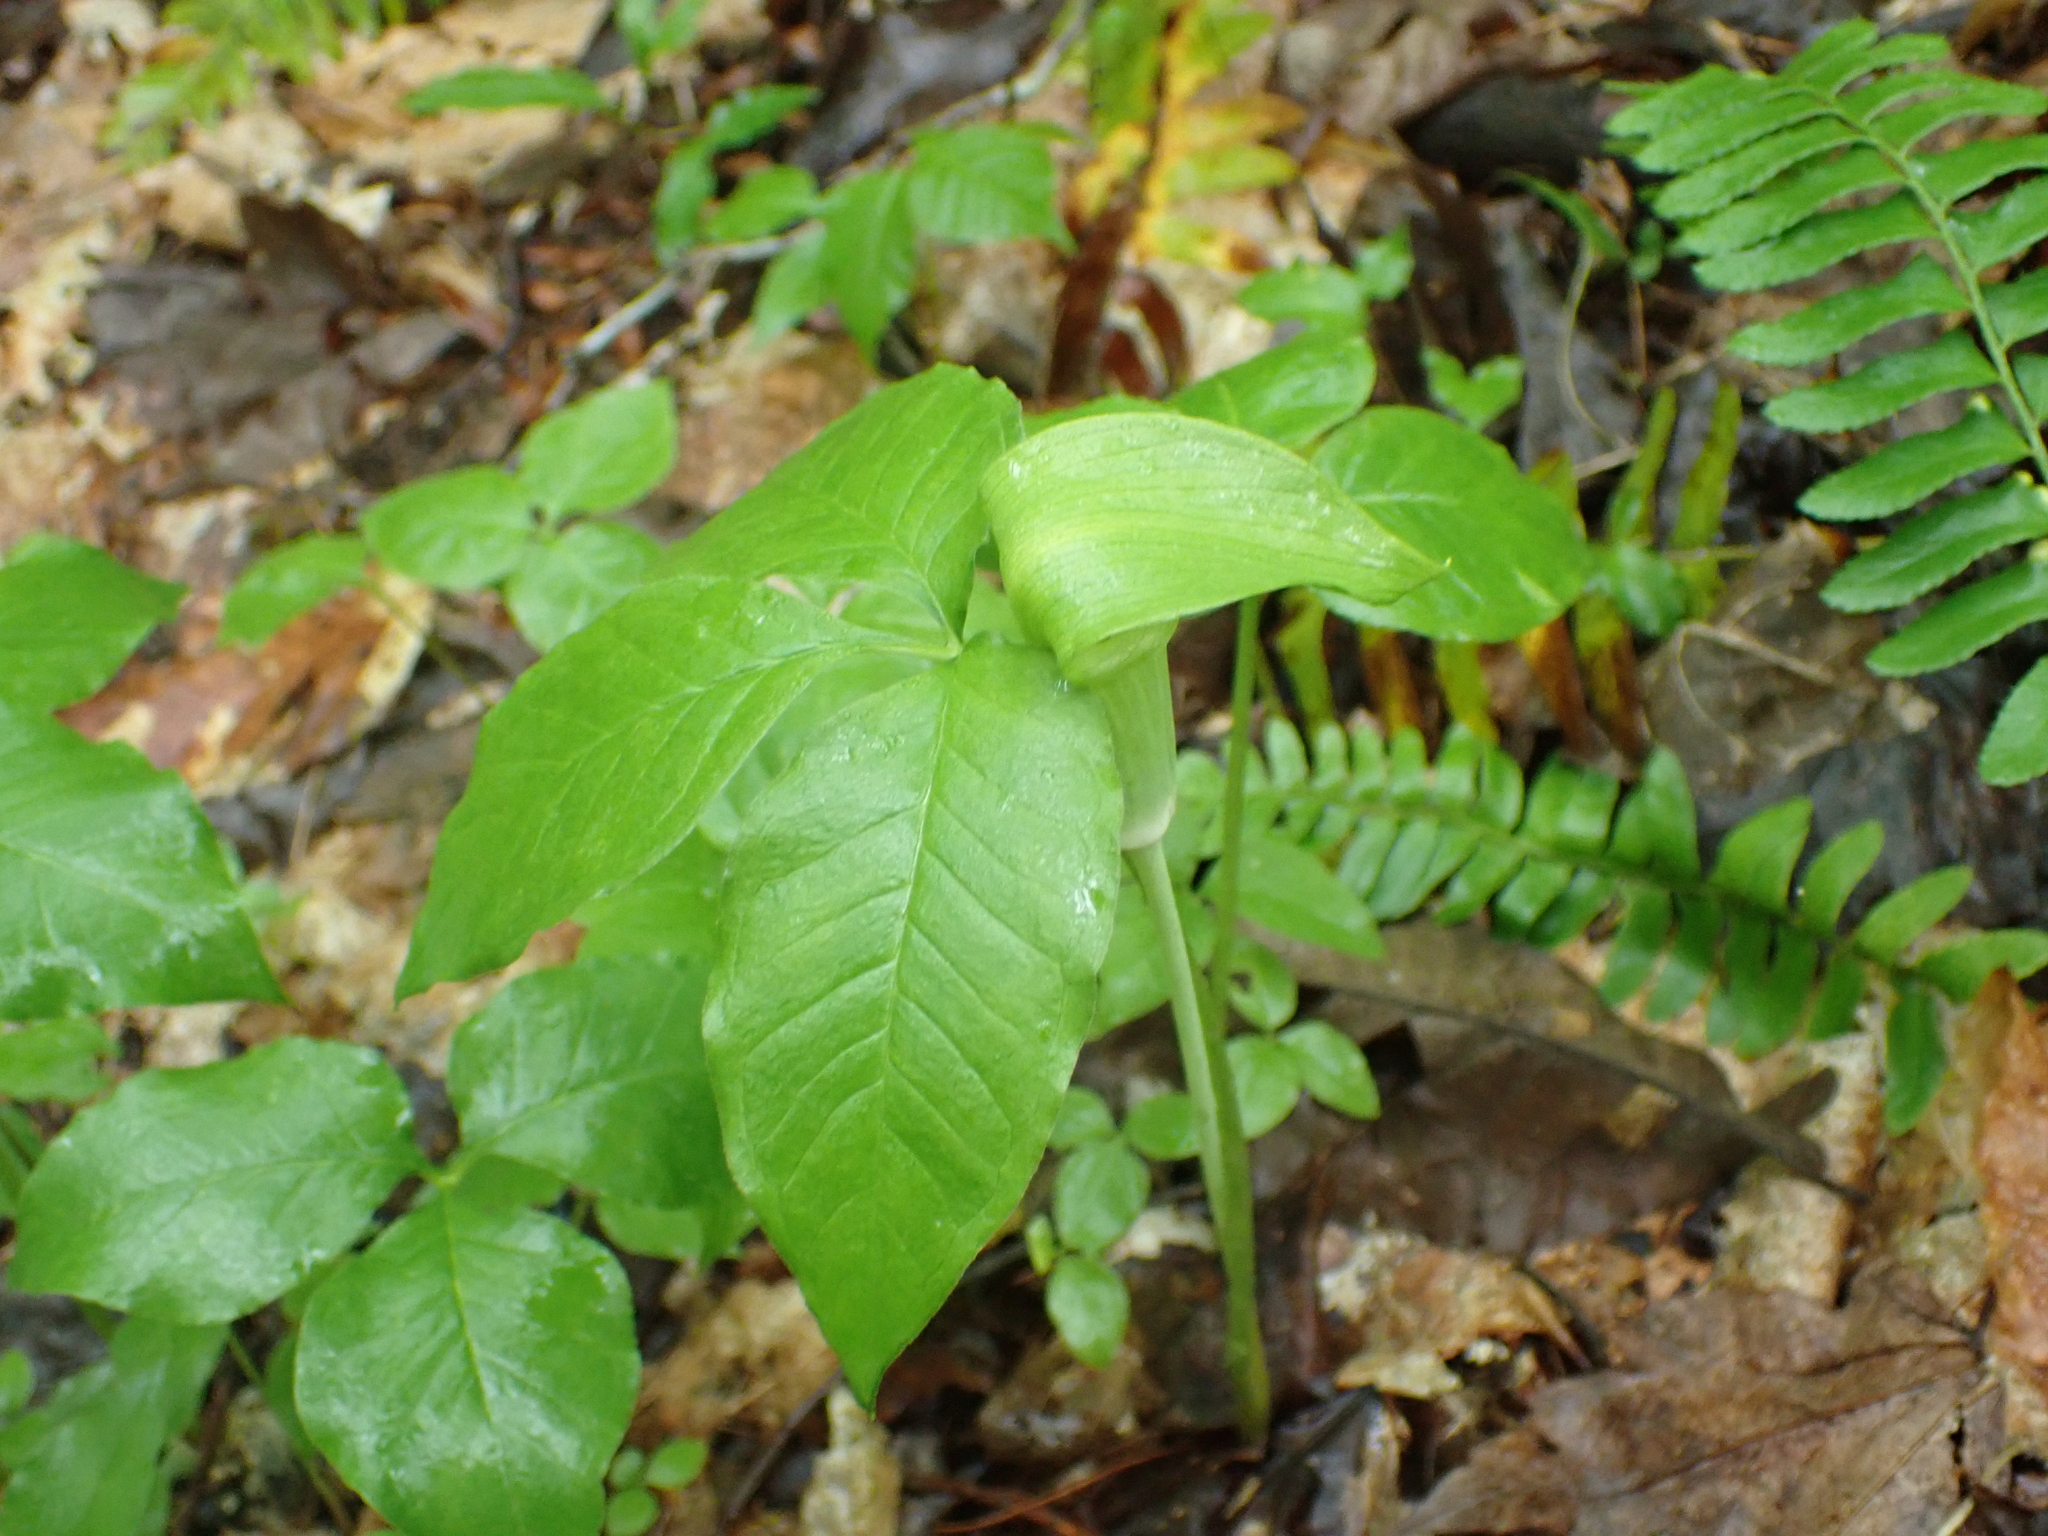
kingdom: Plantae
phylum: Tracheophyta
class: Liliopsida
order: Alismatales
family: Araceae
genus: Arisaema
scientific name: Arisaema triphyllum
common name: Jack-in-the-pulpit
